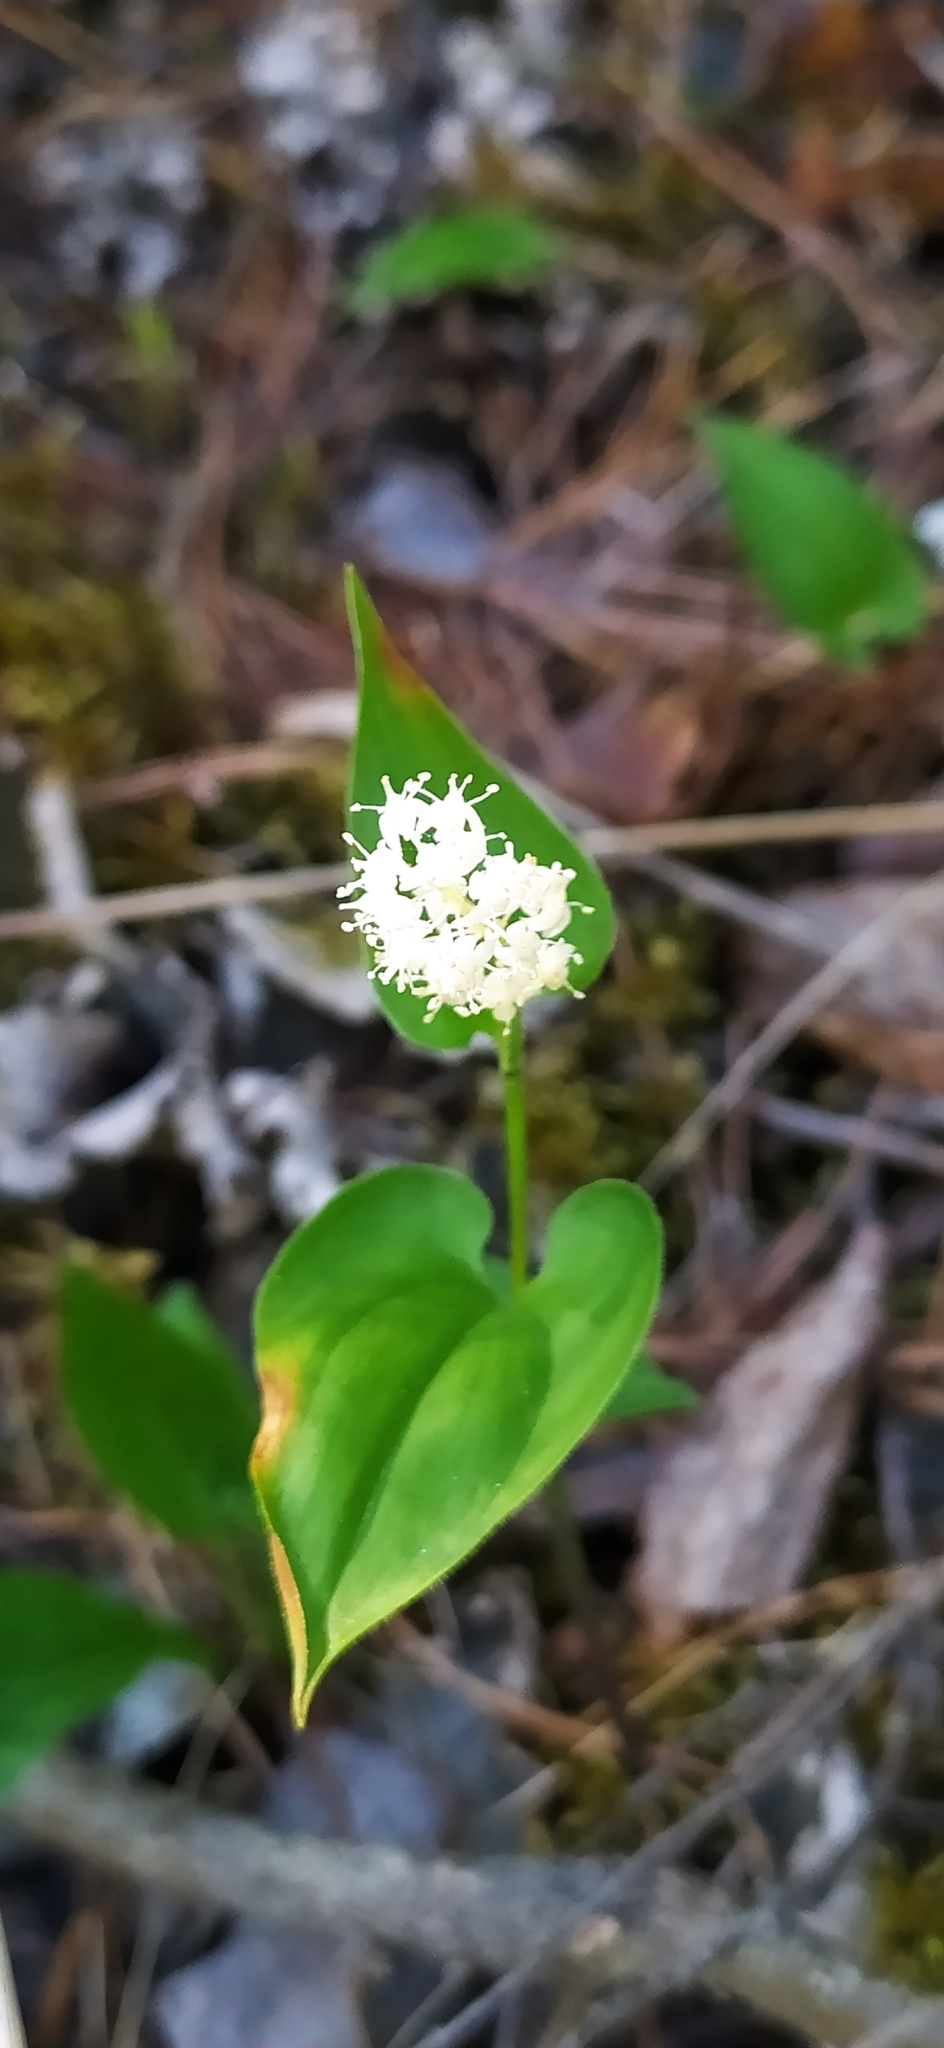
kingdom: Plantae
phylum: Tracheophyta
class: Liliopsida
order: Asparagales
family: Asparagaceae
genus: Maianthemum
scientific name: Maianthemum bifolium
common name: May lily
